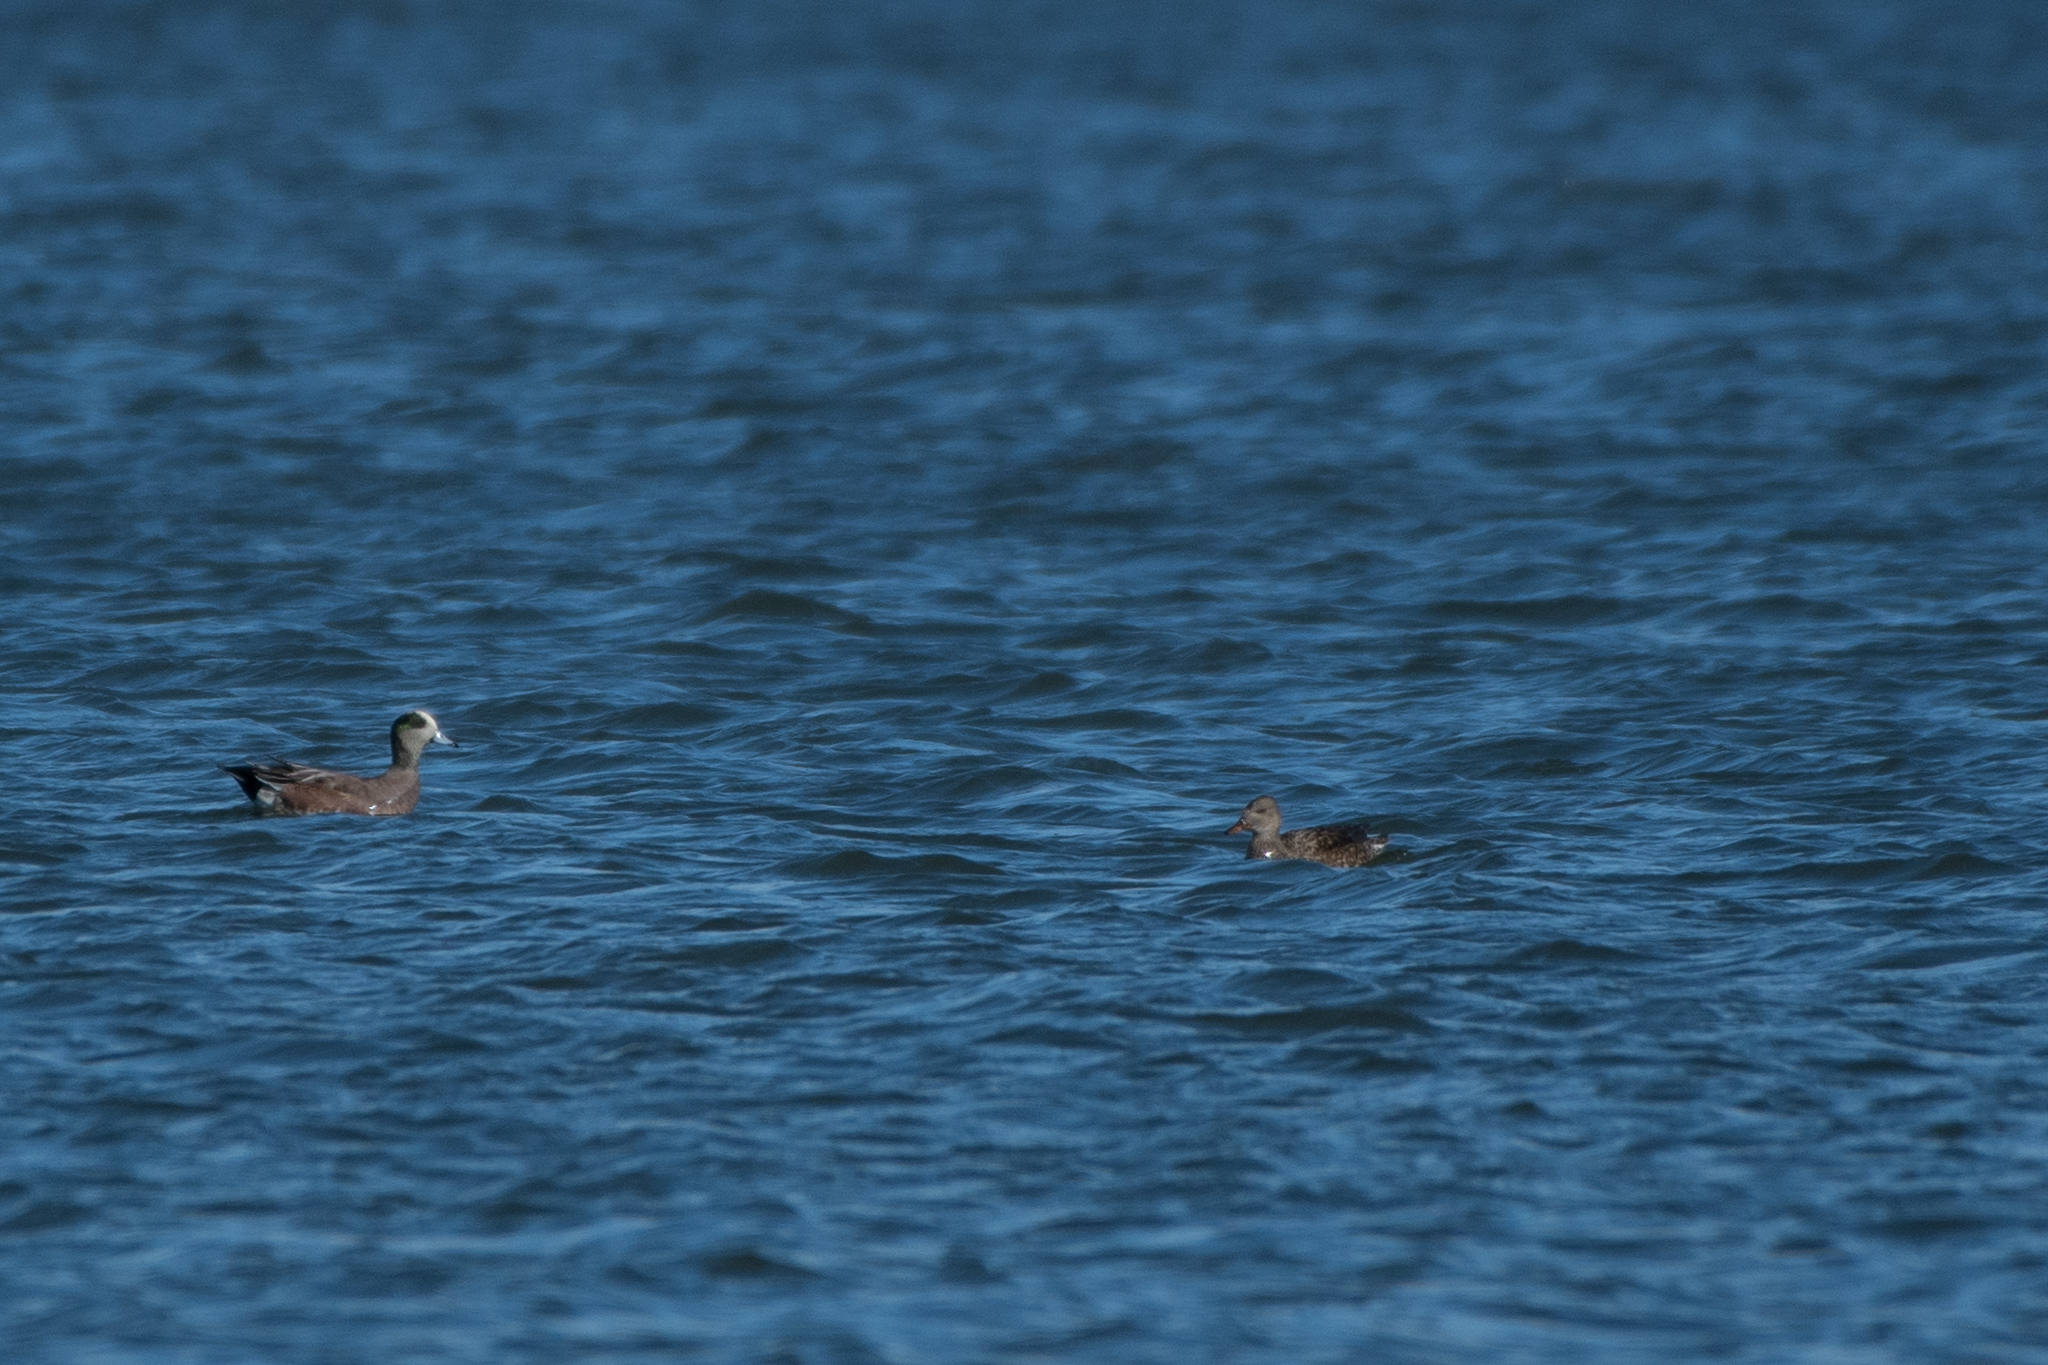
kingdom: Animalia
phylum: Chordata
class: Aves
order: Anseriformes
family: Anatidae
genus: Mareca
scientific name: Mareca strepera
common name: Gadwall
